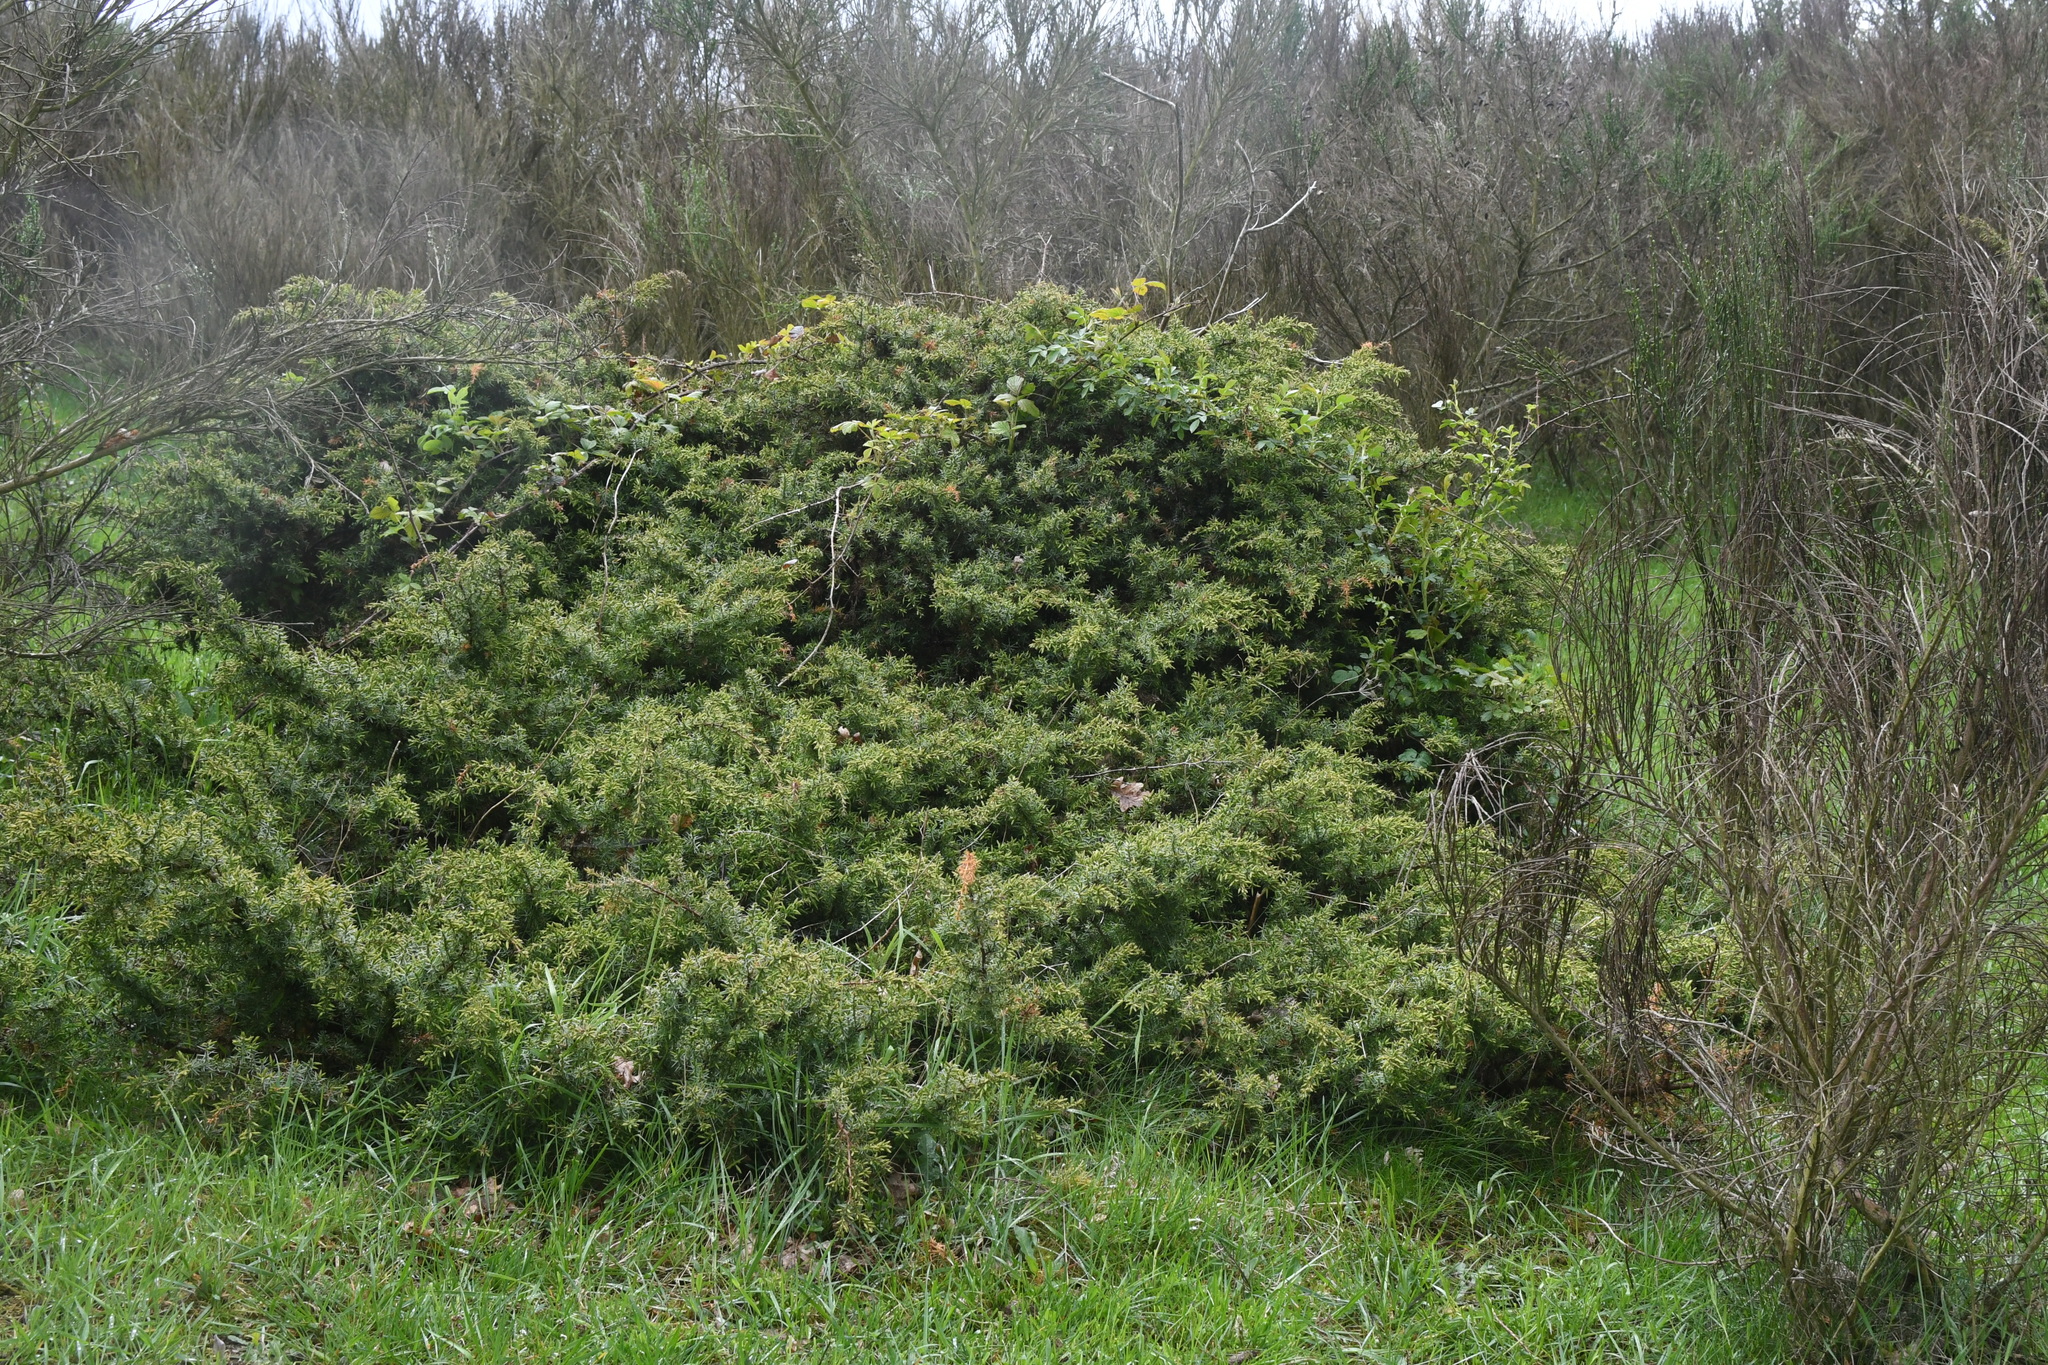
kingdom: Plantae
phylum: Tracheophyta
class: Pinopsida
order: Pinales
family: Cupressaceae
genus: Juniperus
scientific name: Juniperus communis
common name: Common juniper
